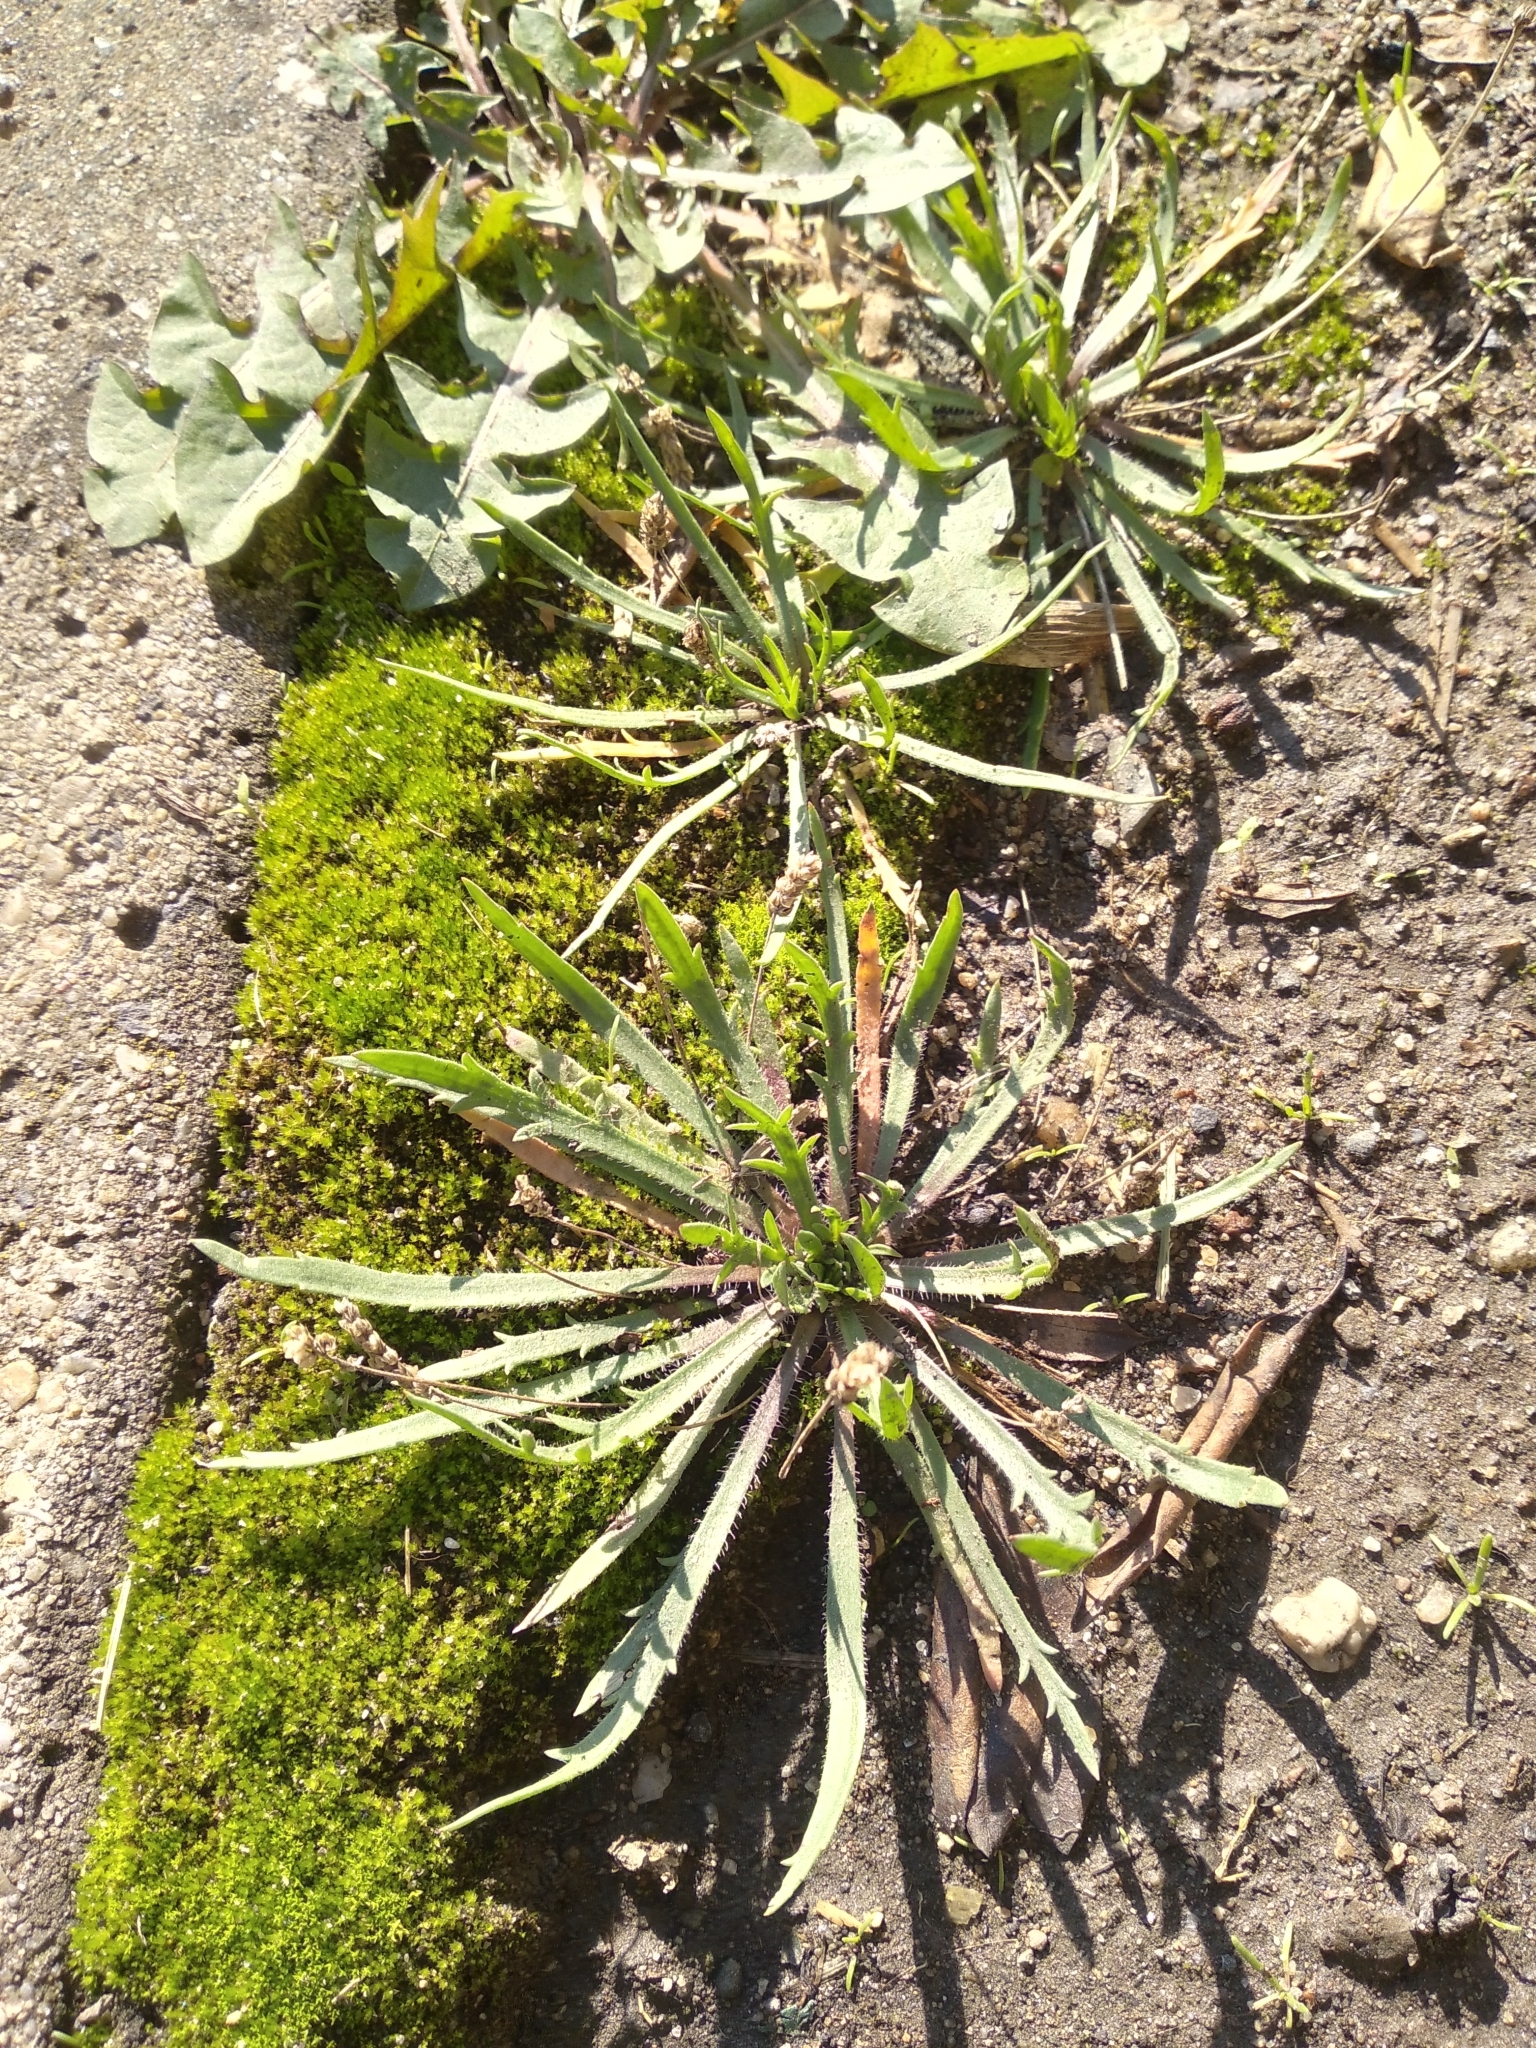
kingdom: Plantae
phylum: Tracheophyta
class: Magnoliopsida
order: Lamiales
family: Plantaginaceae
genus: Plantago
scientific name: Plantago coronopus
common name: Buck's-horn plantain
